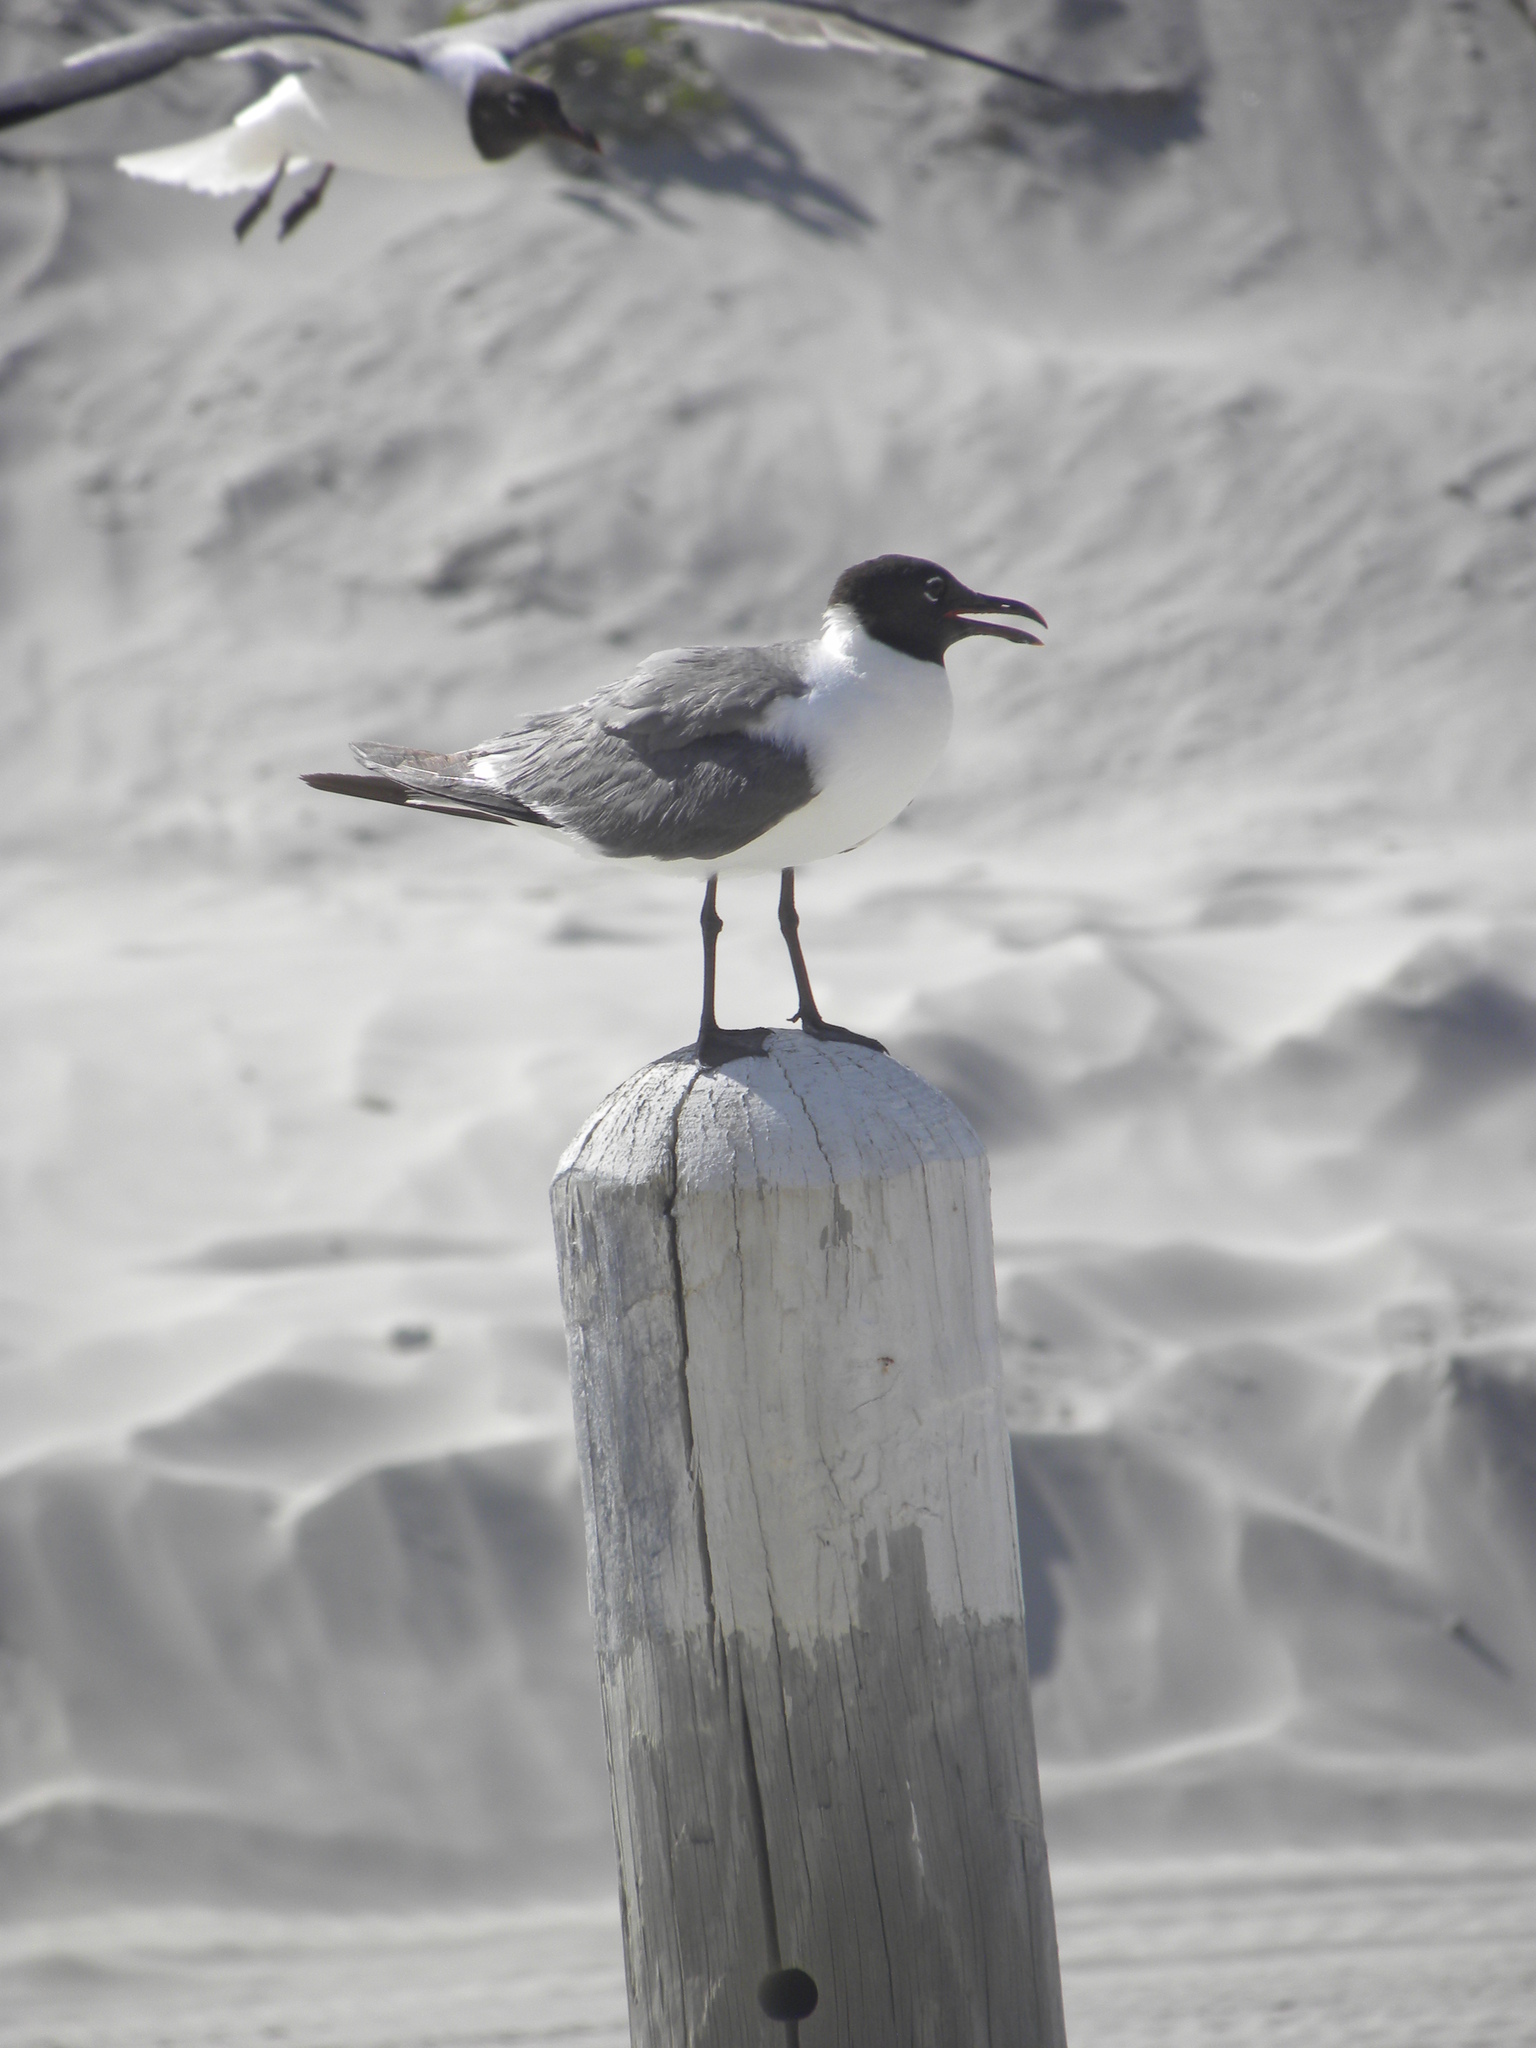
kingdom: Animalia
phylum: Chordata
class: Aves
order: Charadriiformes
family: Laridae
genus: Leucophaeus
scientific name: Leucophaeus atricilla
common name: Laughing gull
